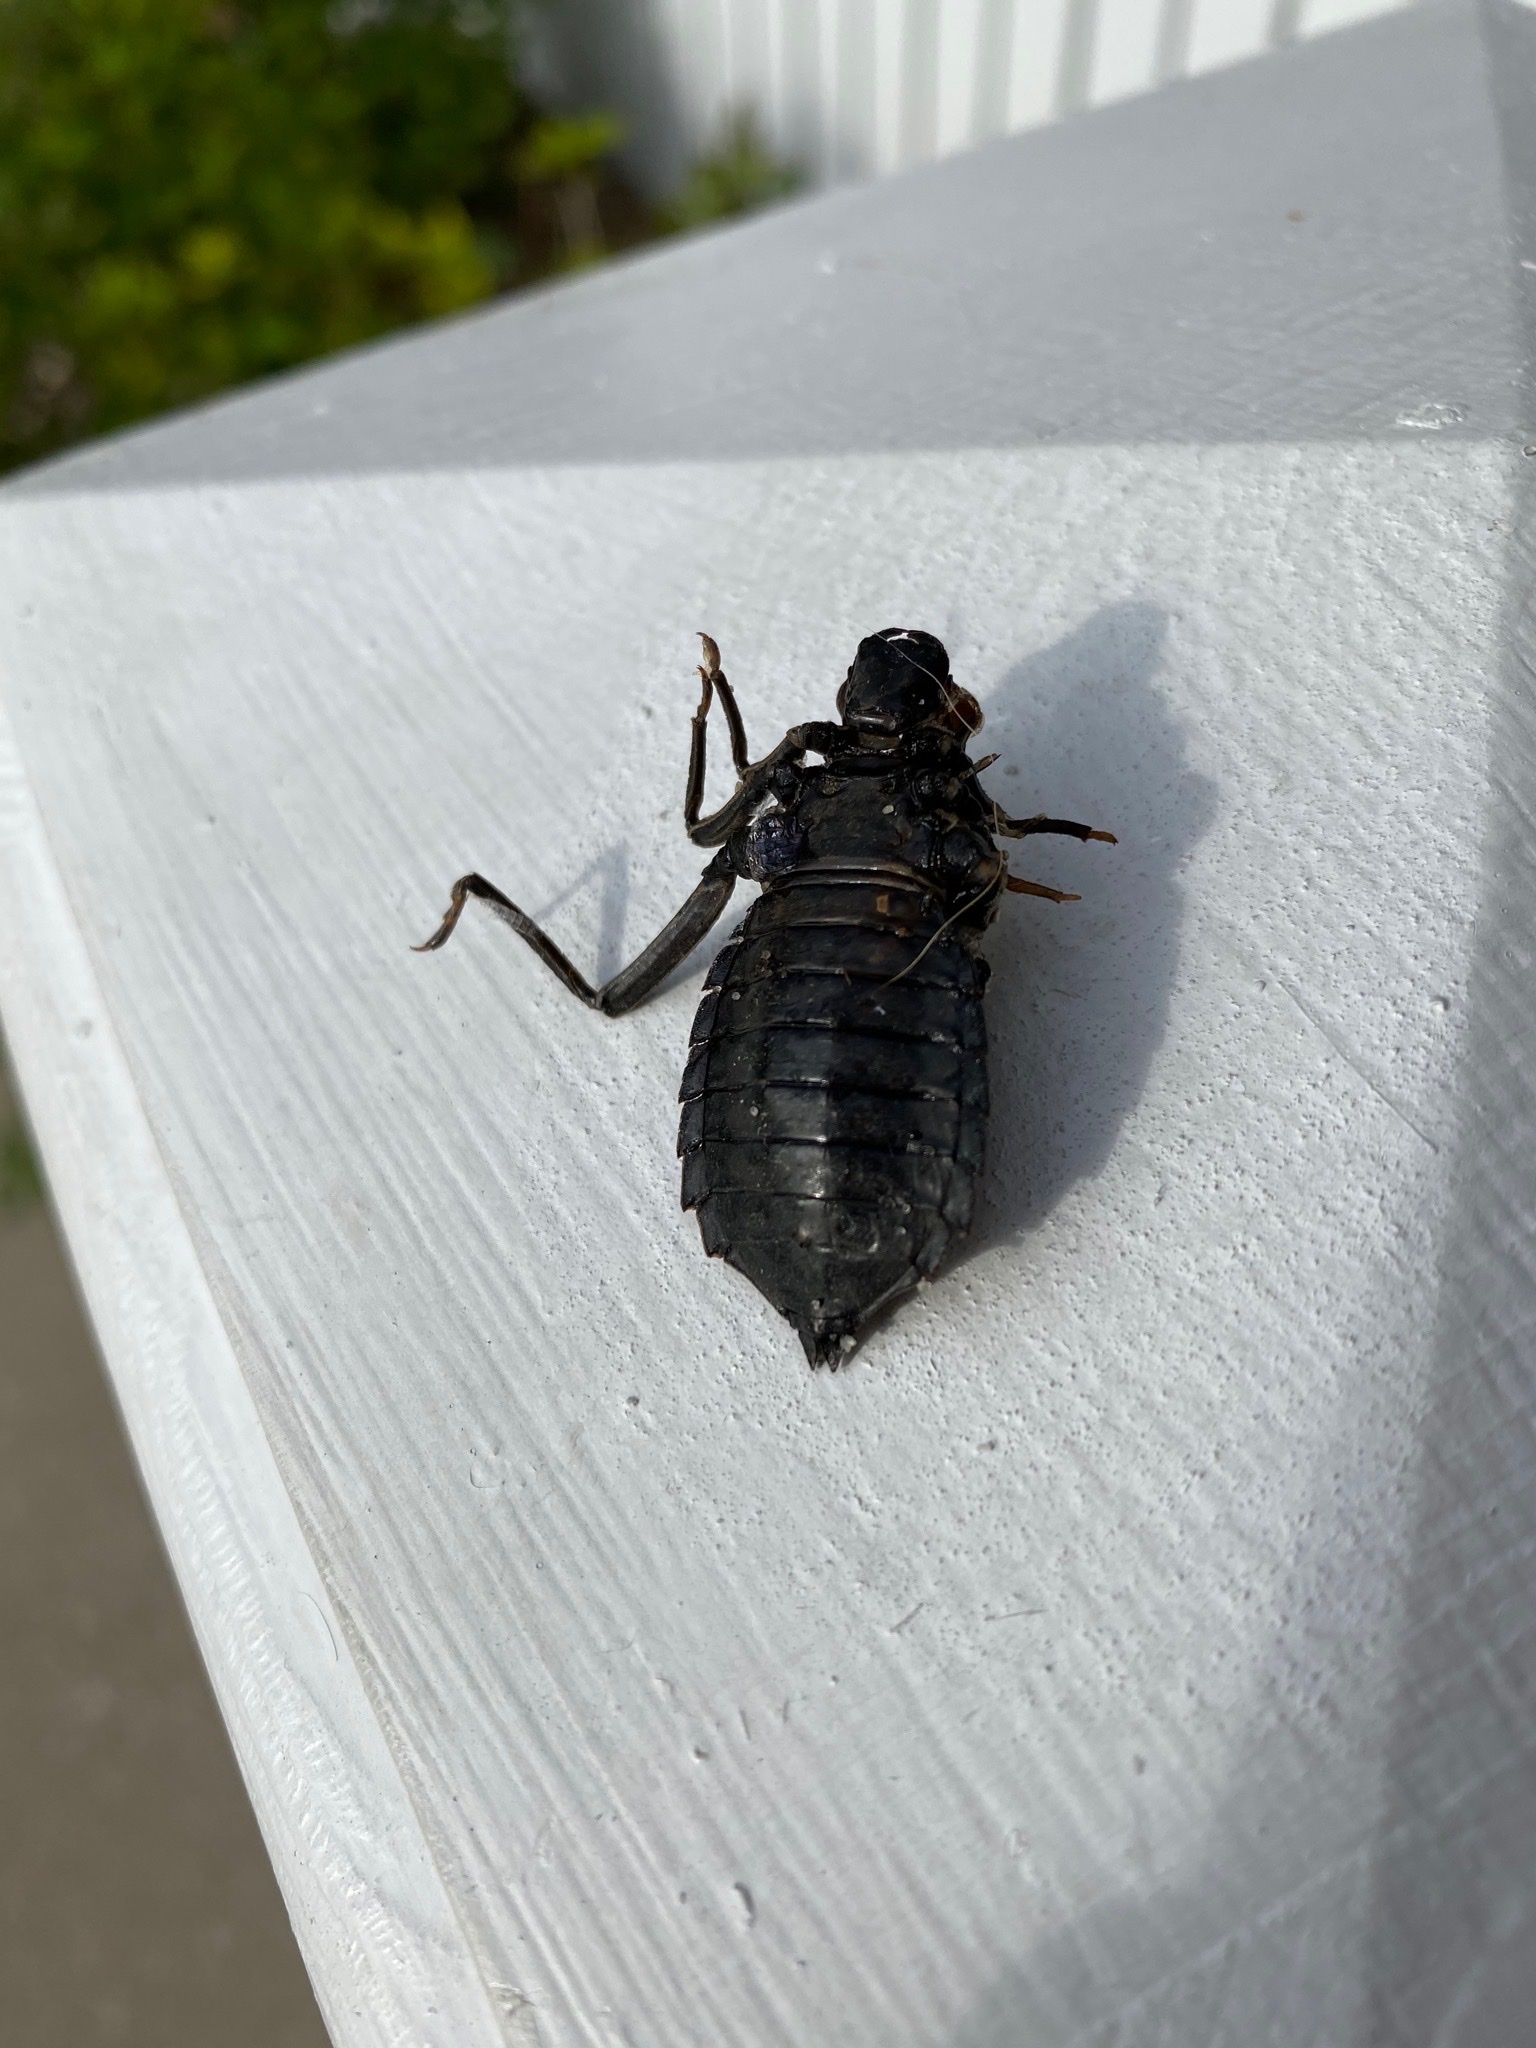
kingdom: Animalia
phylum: Arthropoda
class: Insecta
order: Odonata
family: Gomphidae
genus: Hagenius
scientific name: Hagenius brevistylus
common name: Dragonhunter
